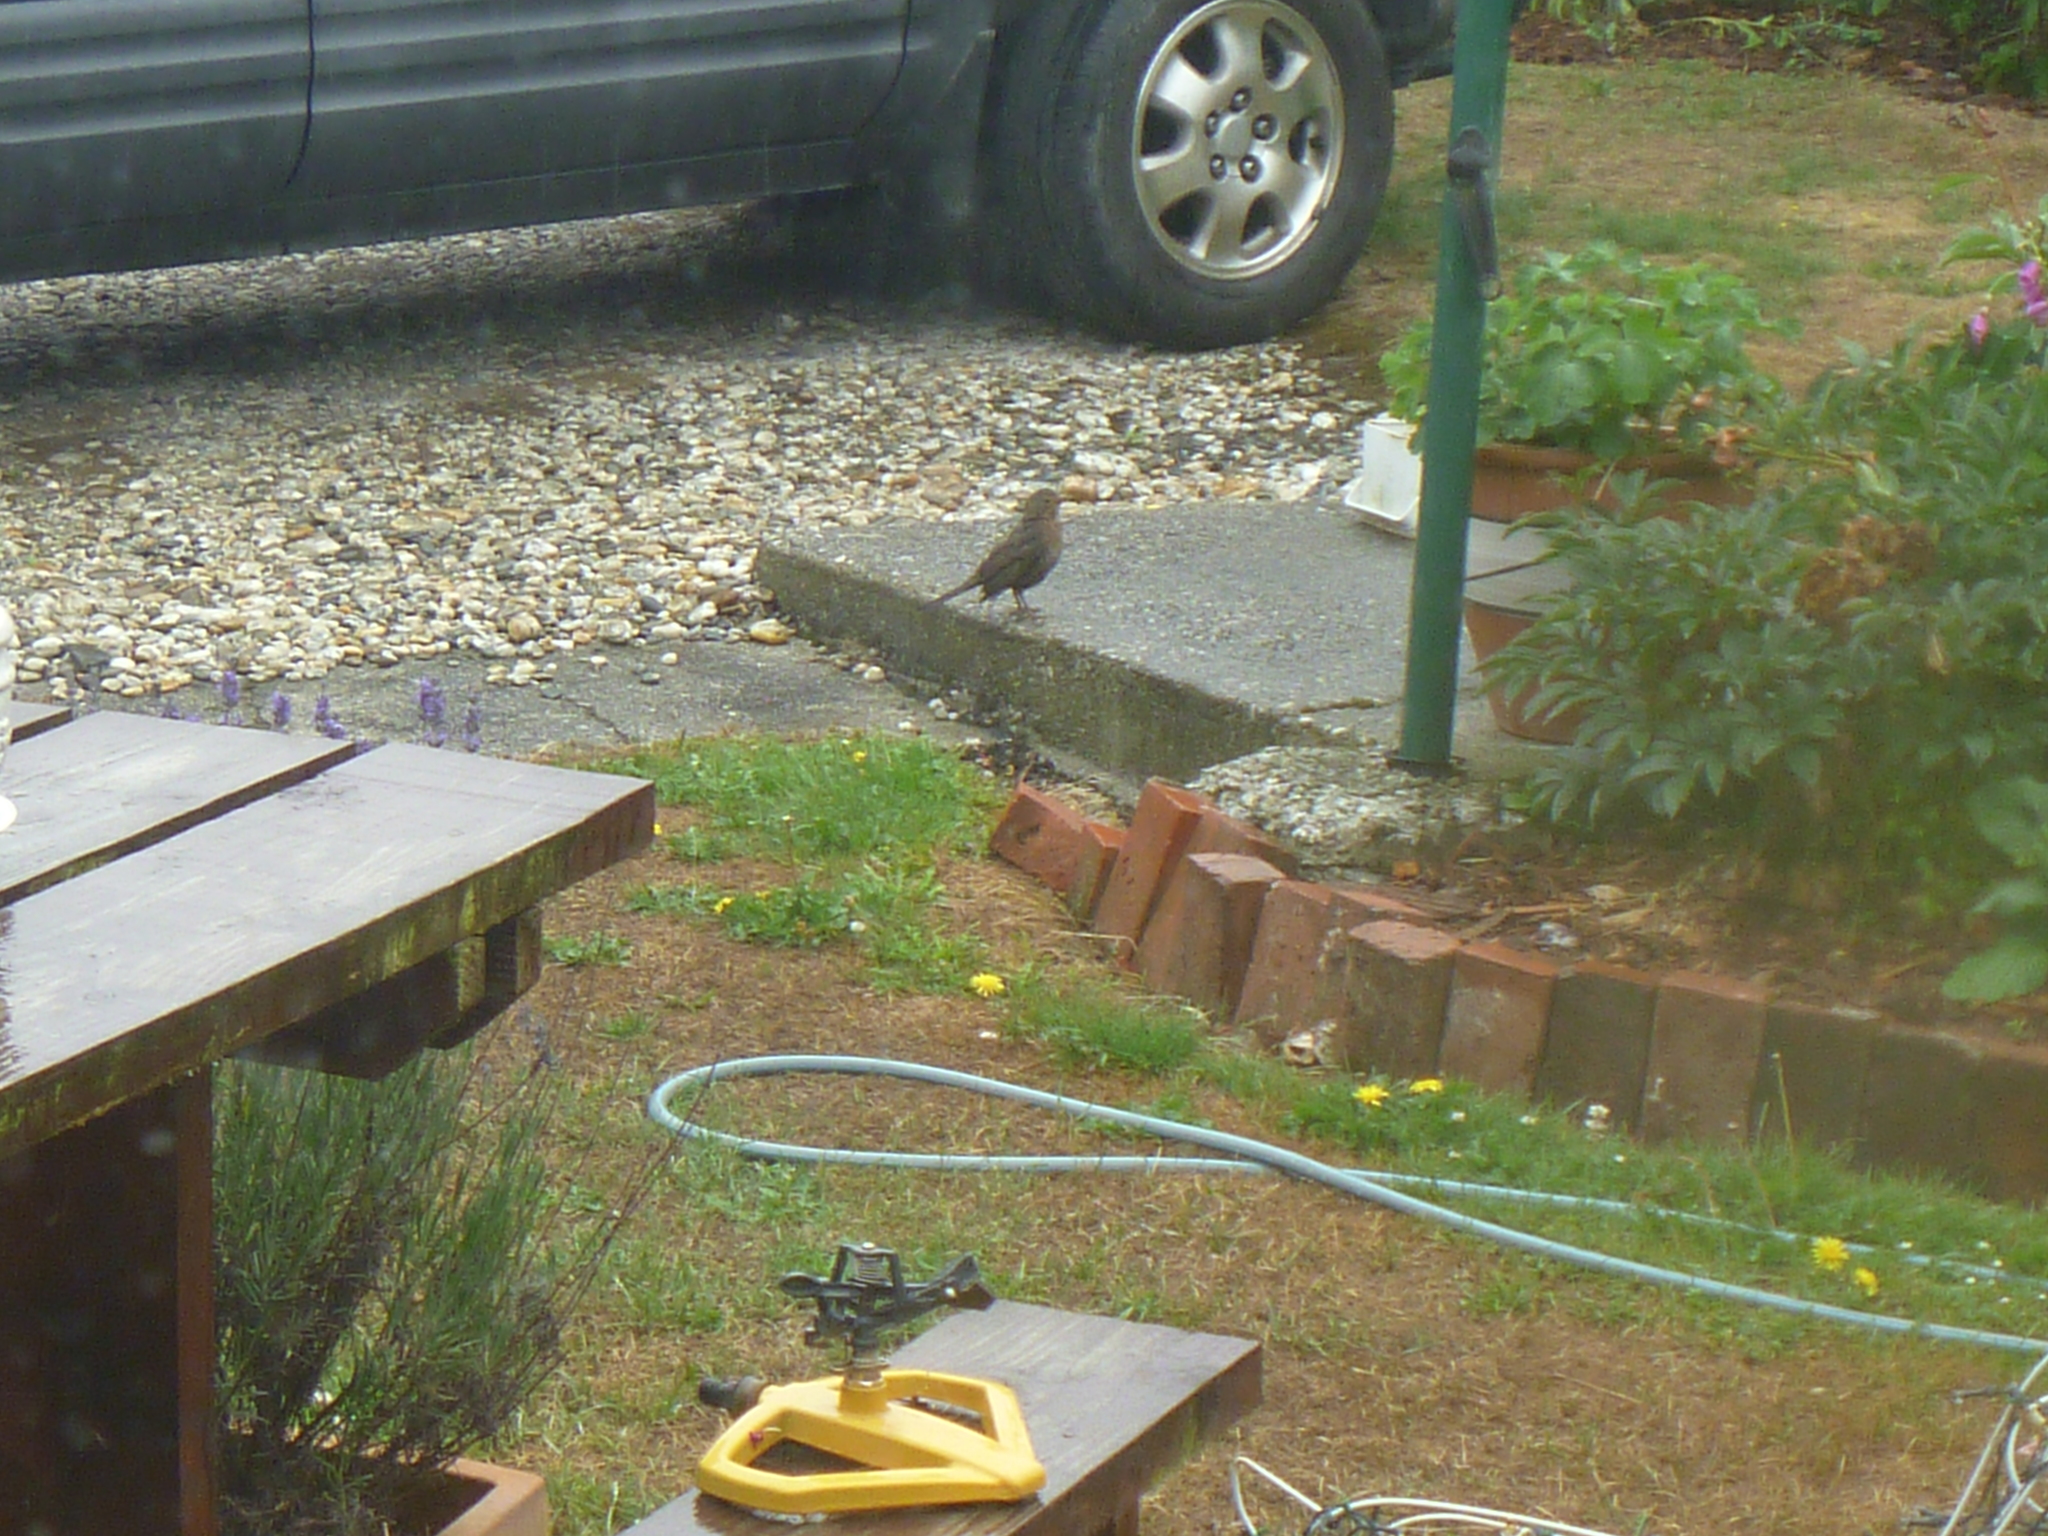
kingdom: Animalia
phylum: Chordata
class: Aves
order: Passeriformes
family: Turdidae
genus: Turdus
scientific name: Turdus merula
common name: Common blackbird
